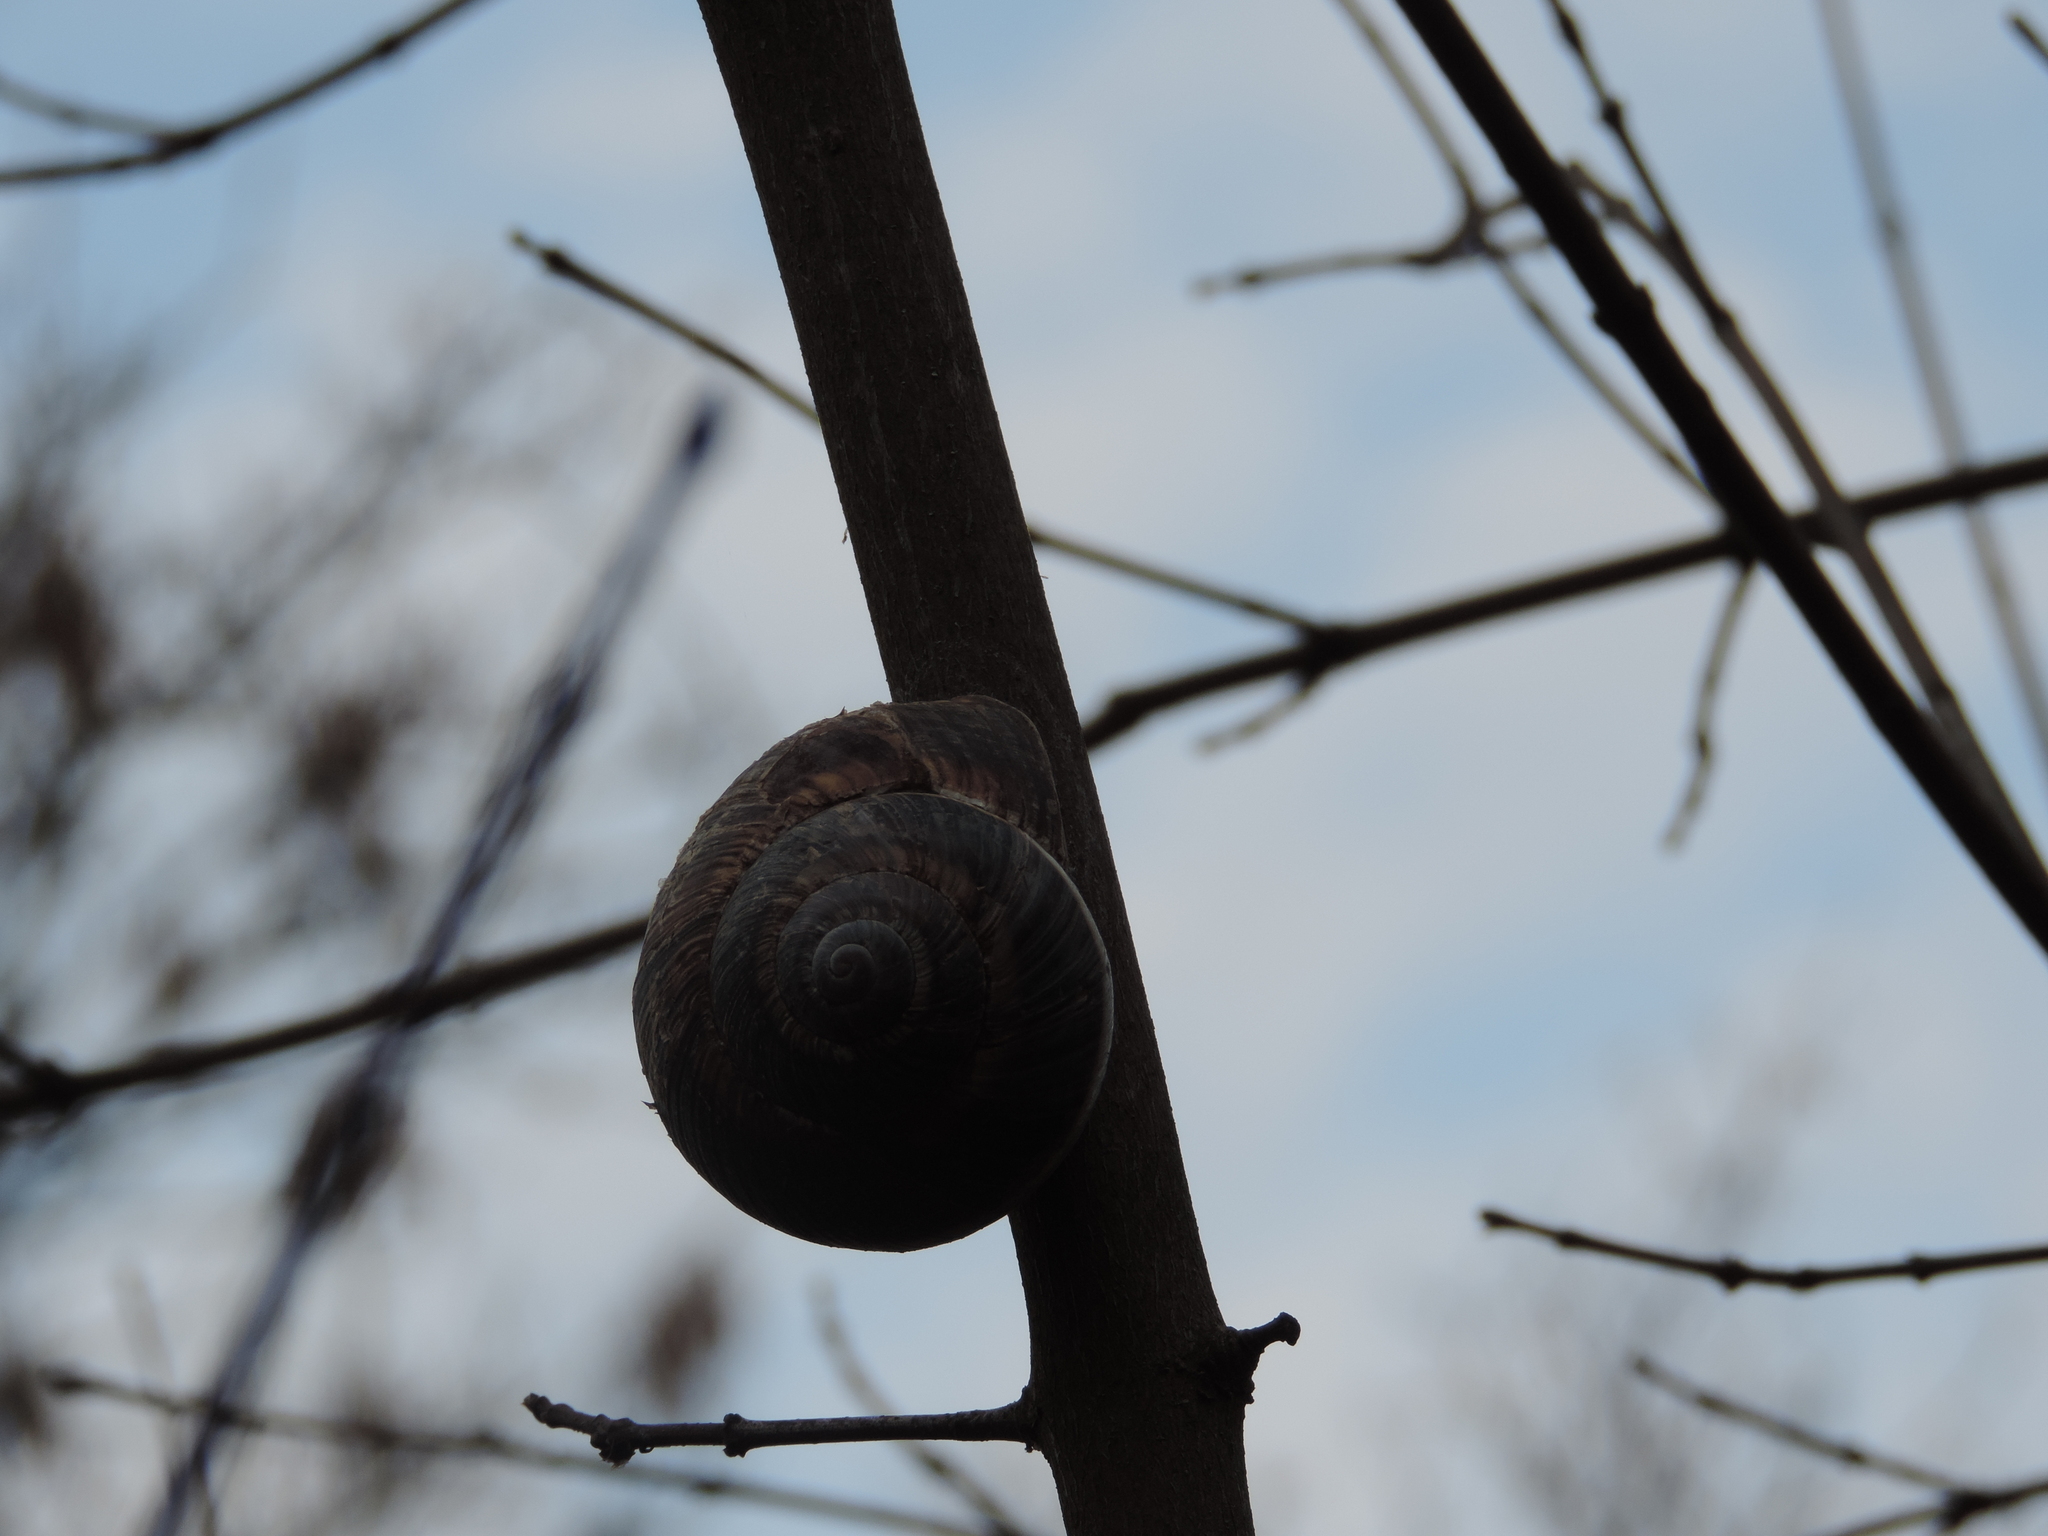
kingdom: Animalia
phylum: Mollusca
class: Gastropoda
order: Stylommatophora
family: Helicidae
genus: Helix
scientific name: Helix lucorum
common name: Turkish snail
